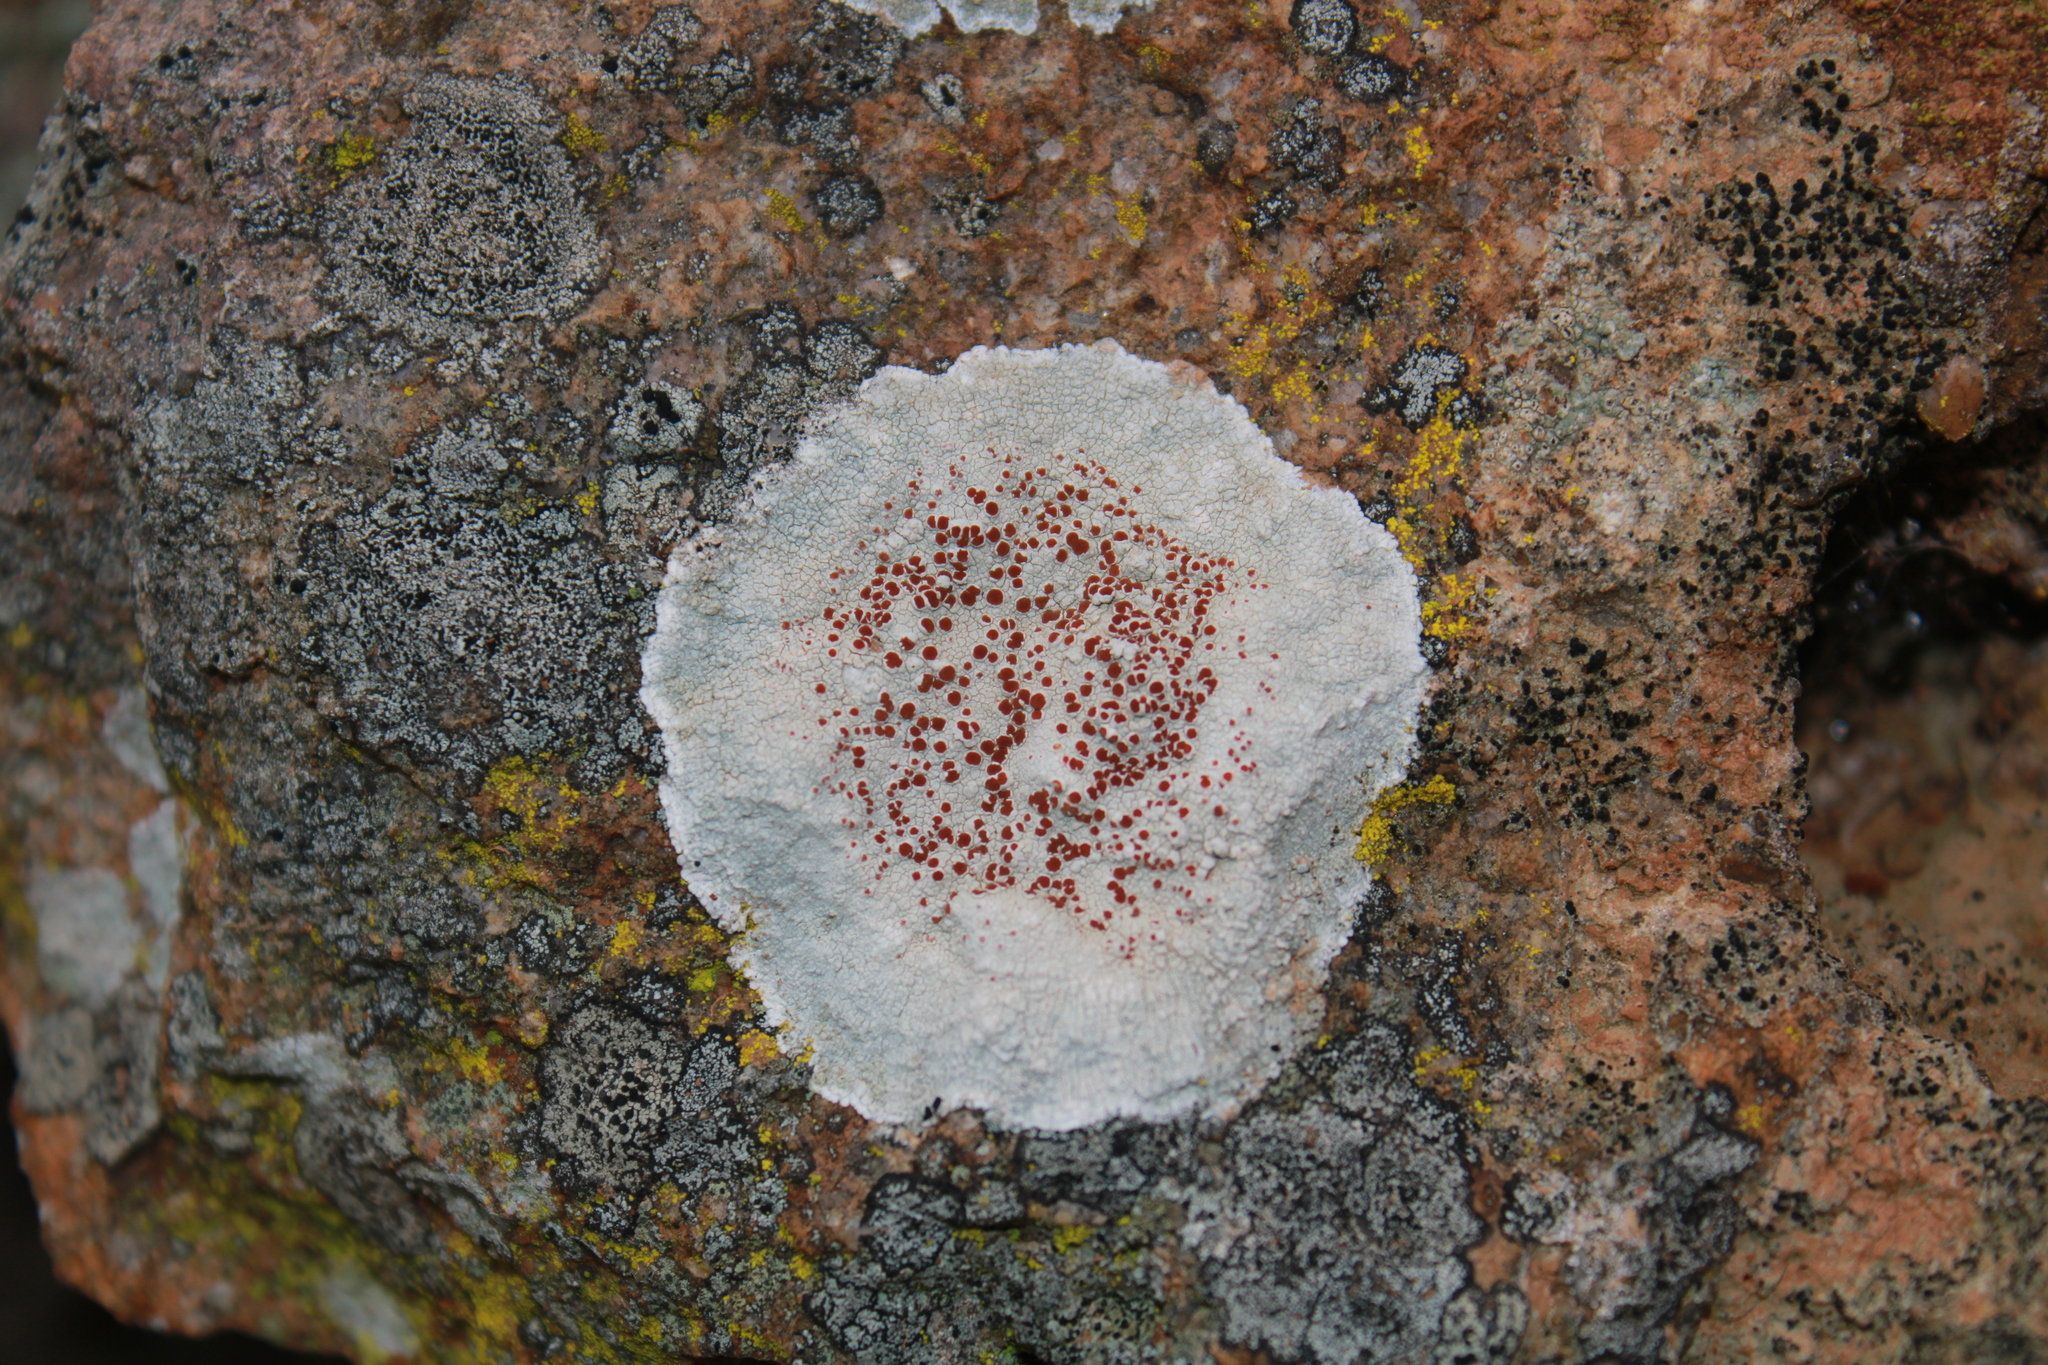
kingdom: Fungi
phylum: Ascomycota
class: Lecanoromycetes
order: Lecanorales
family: Haematommataceae
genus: Haematomma
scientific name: Haematomma fenzlianum
